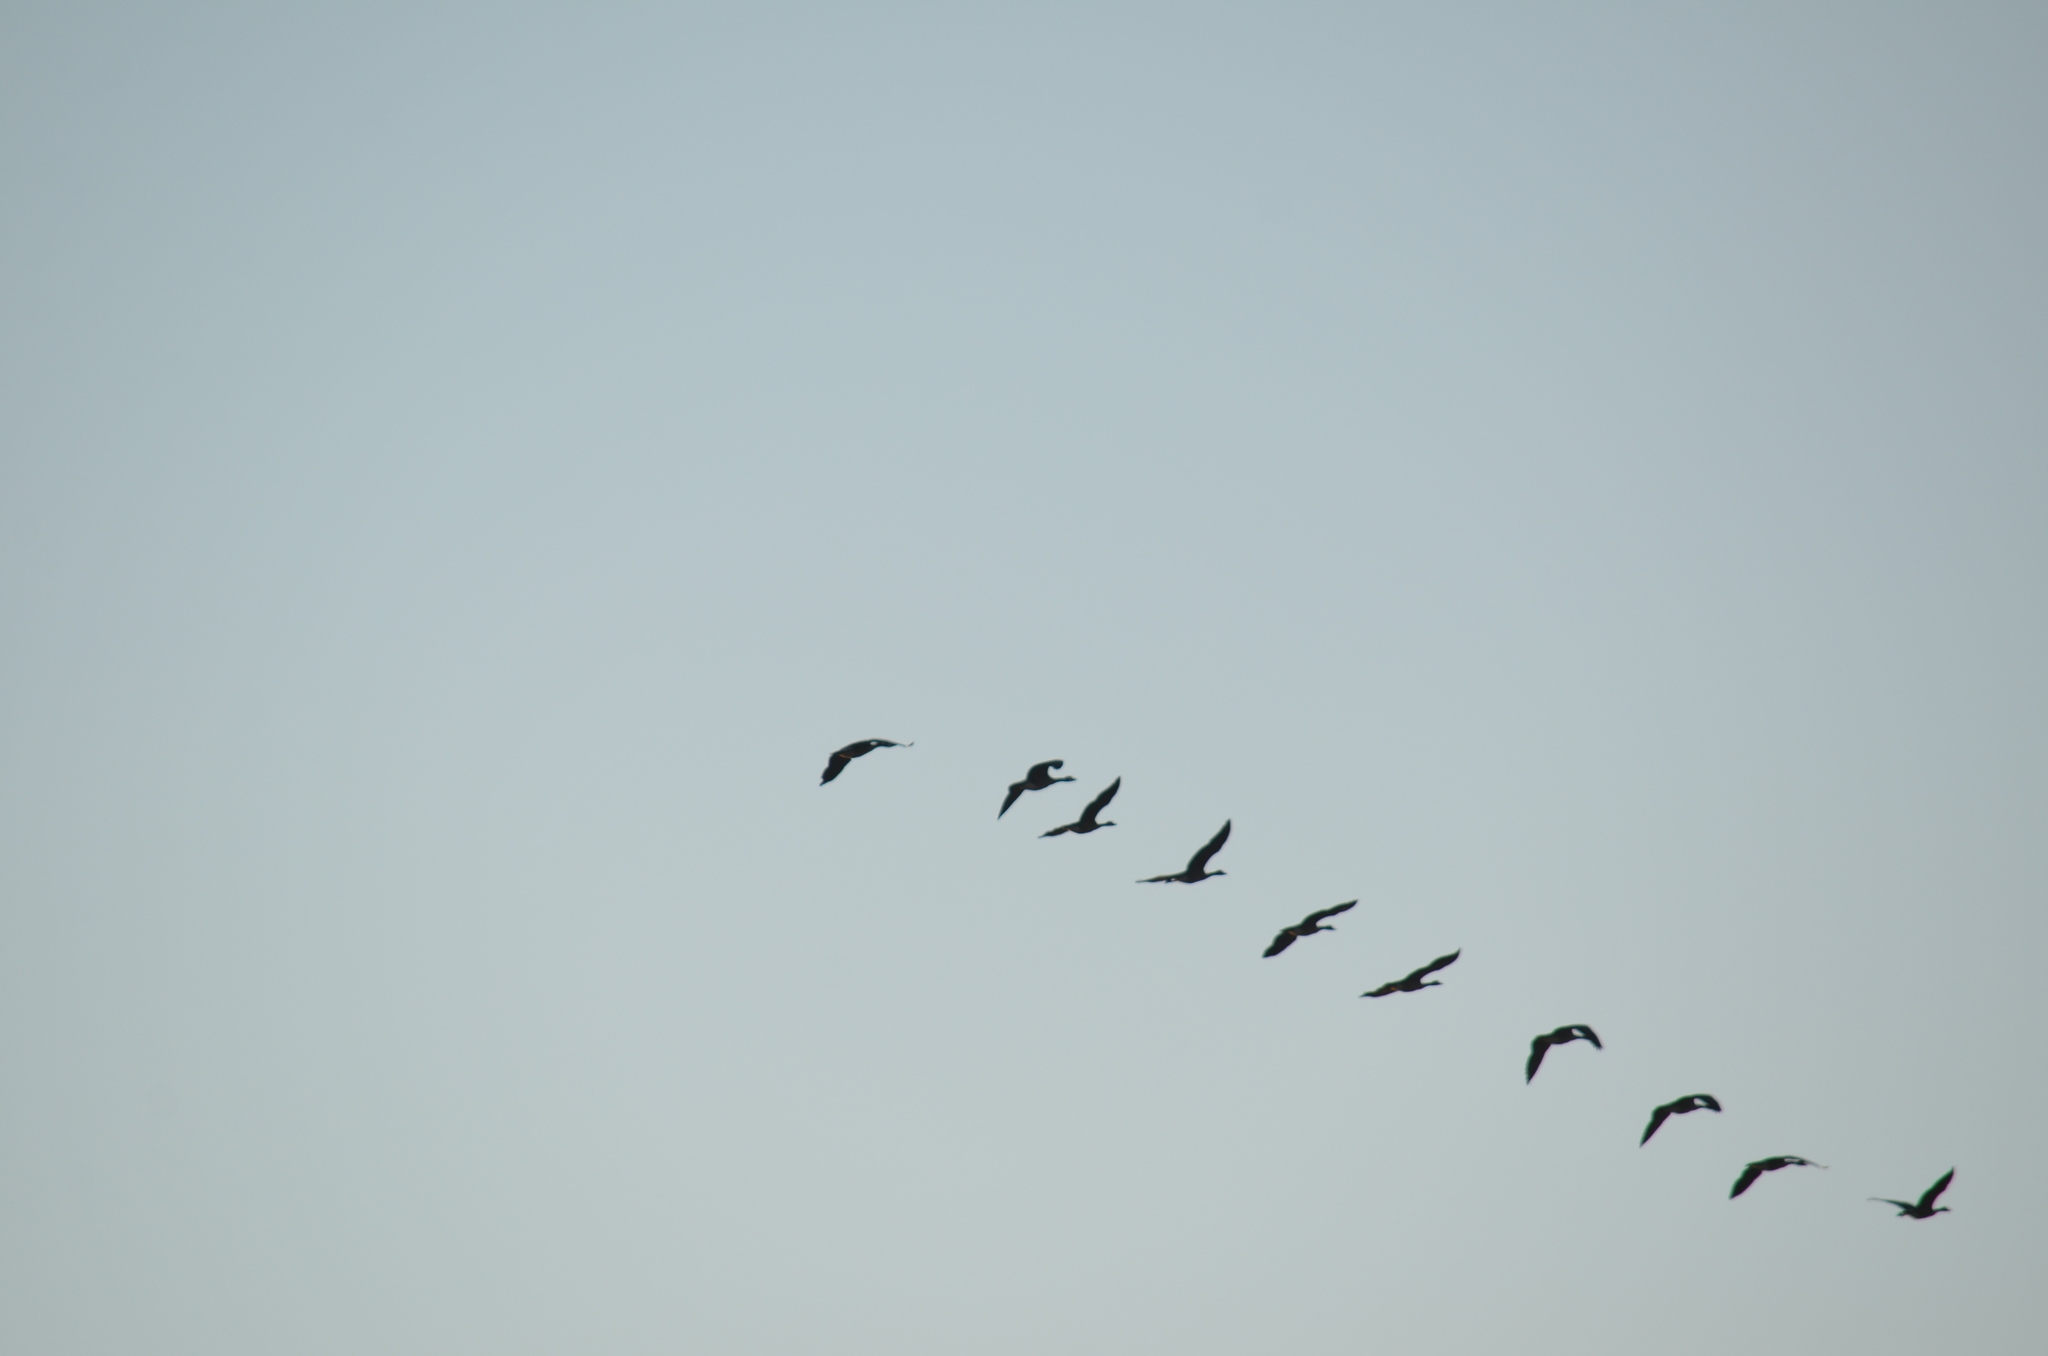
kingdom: Animalia
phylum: Chordata
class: Aves
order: Anseriformes
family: Anatidae
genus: Branta
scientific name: Branta canadensis
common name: Canada goose
